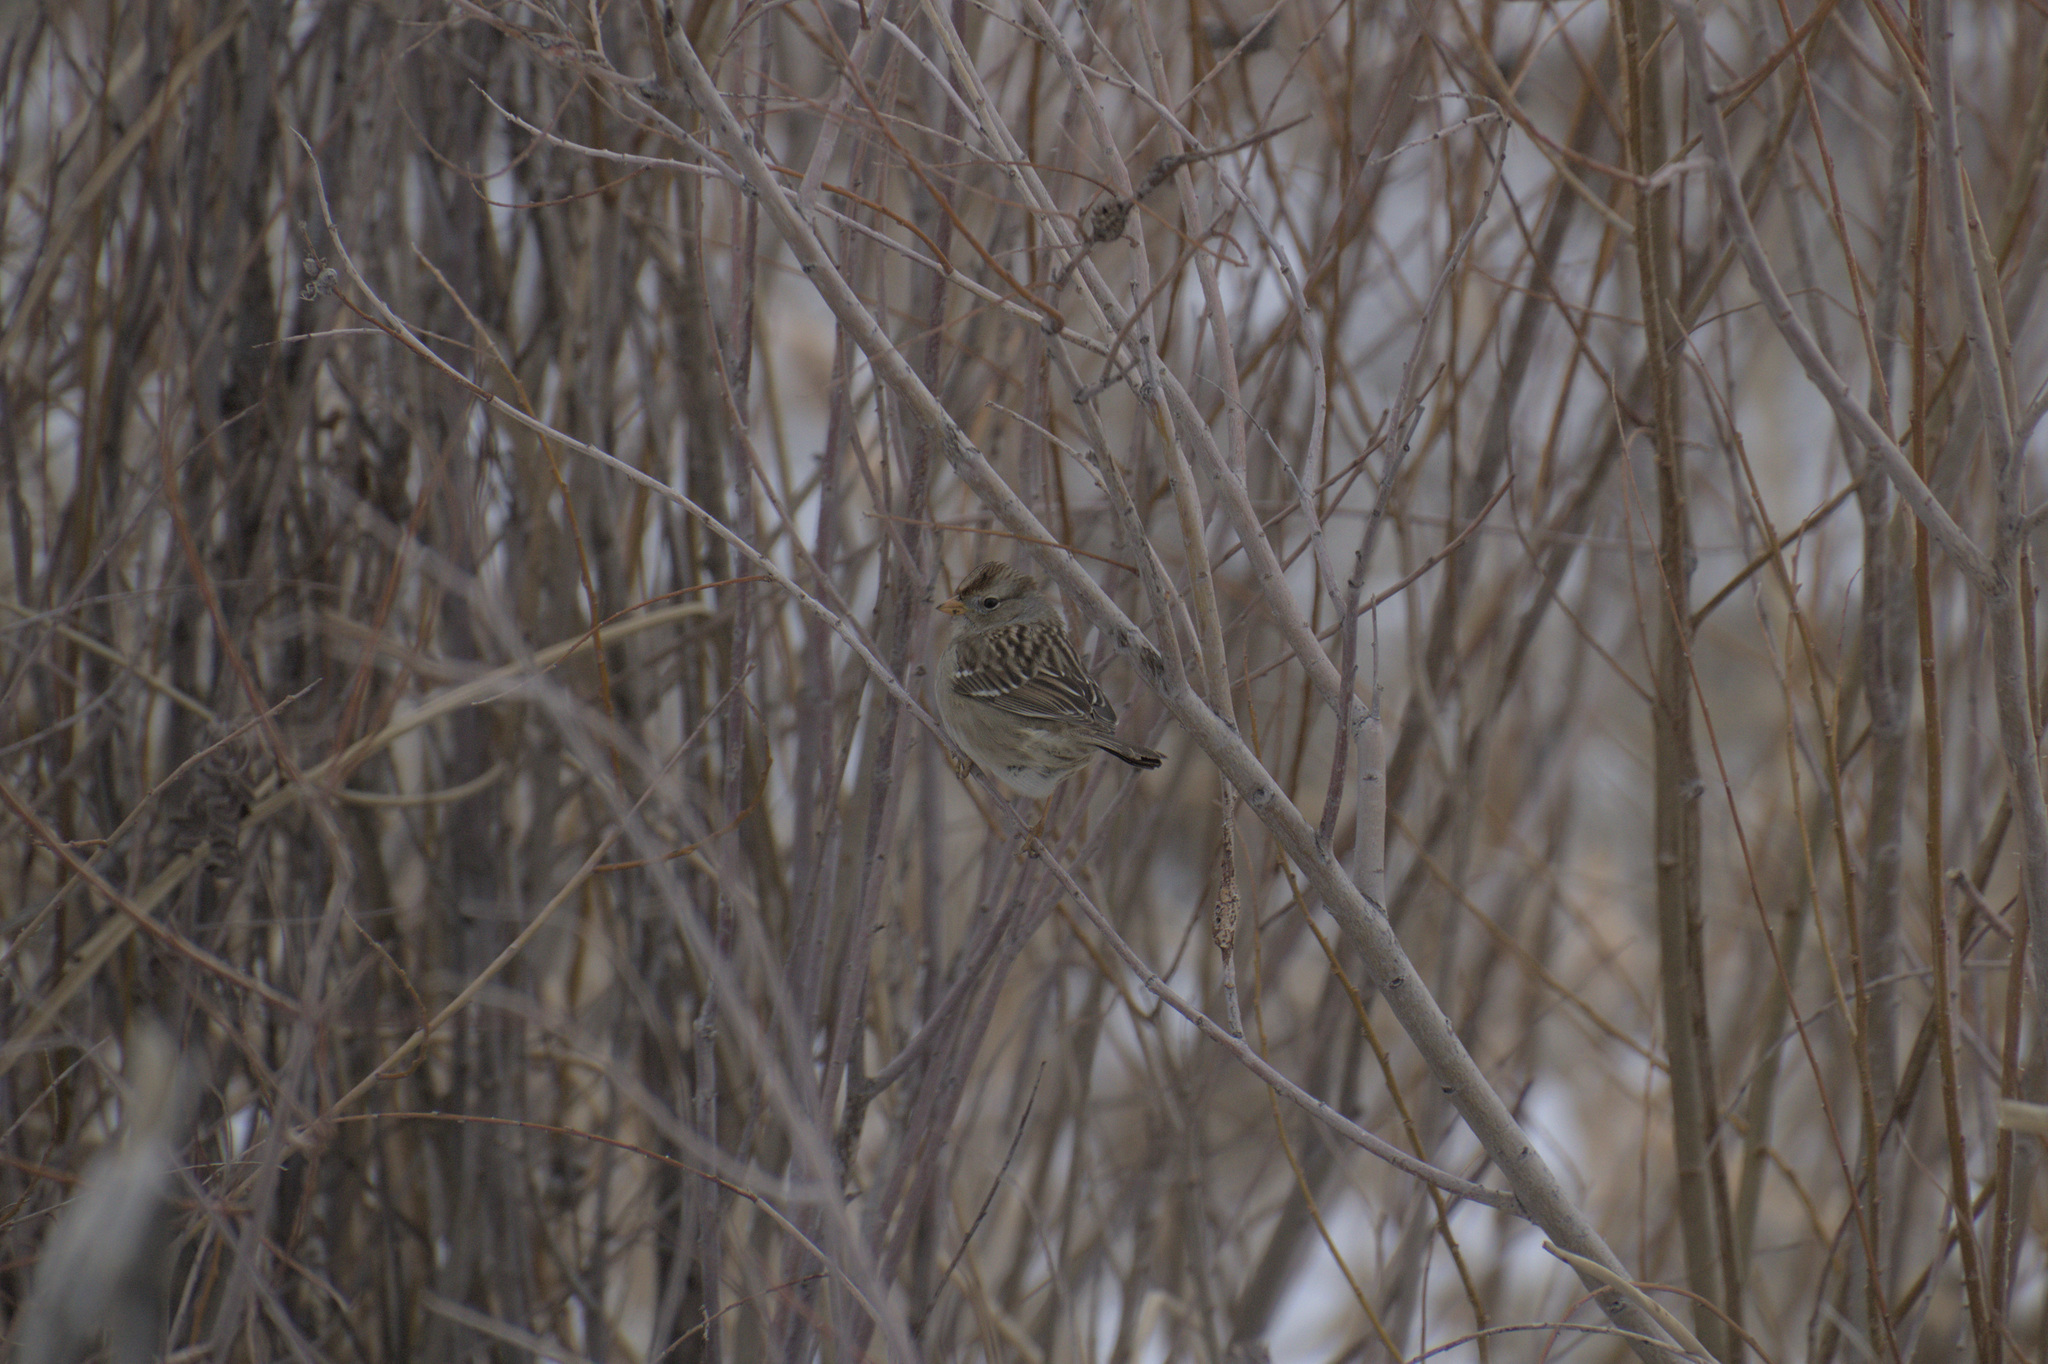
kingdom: Animalia
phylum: Chordata
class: Aves
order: Passeriformes
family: Passerellidae
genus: Zonotrichia
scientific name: Zonotrichia leucophrys
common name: White-crowned sparrow
